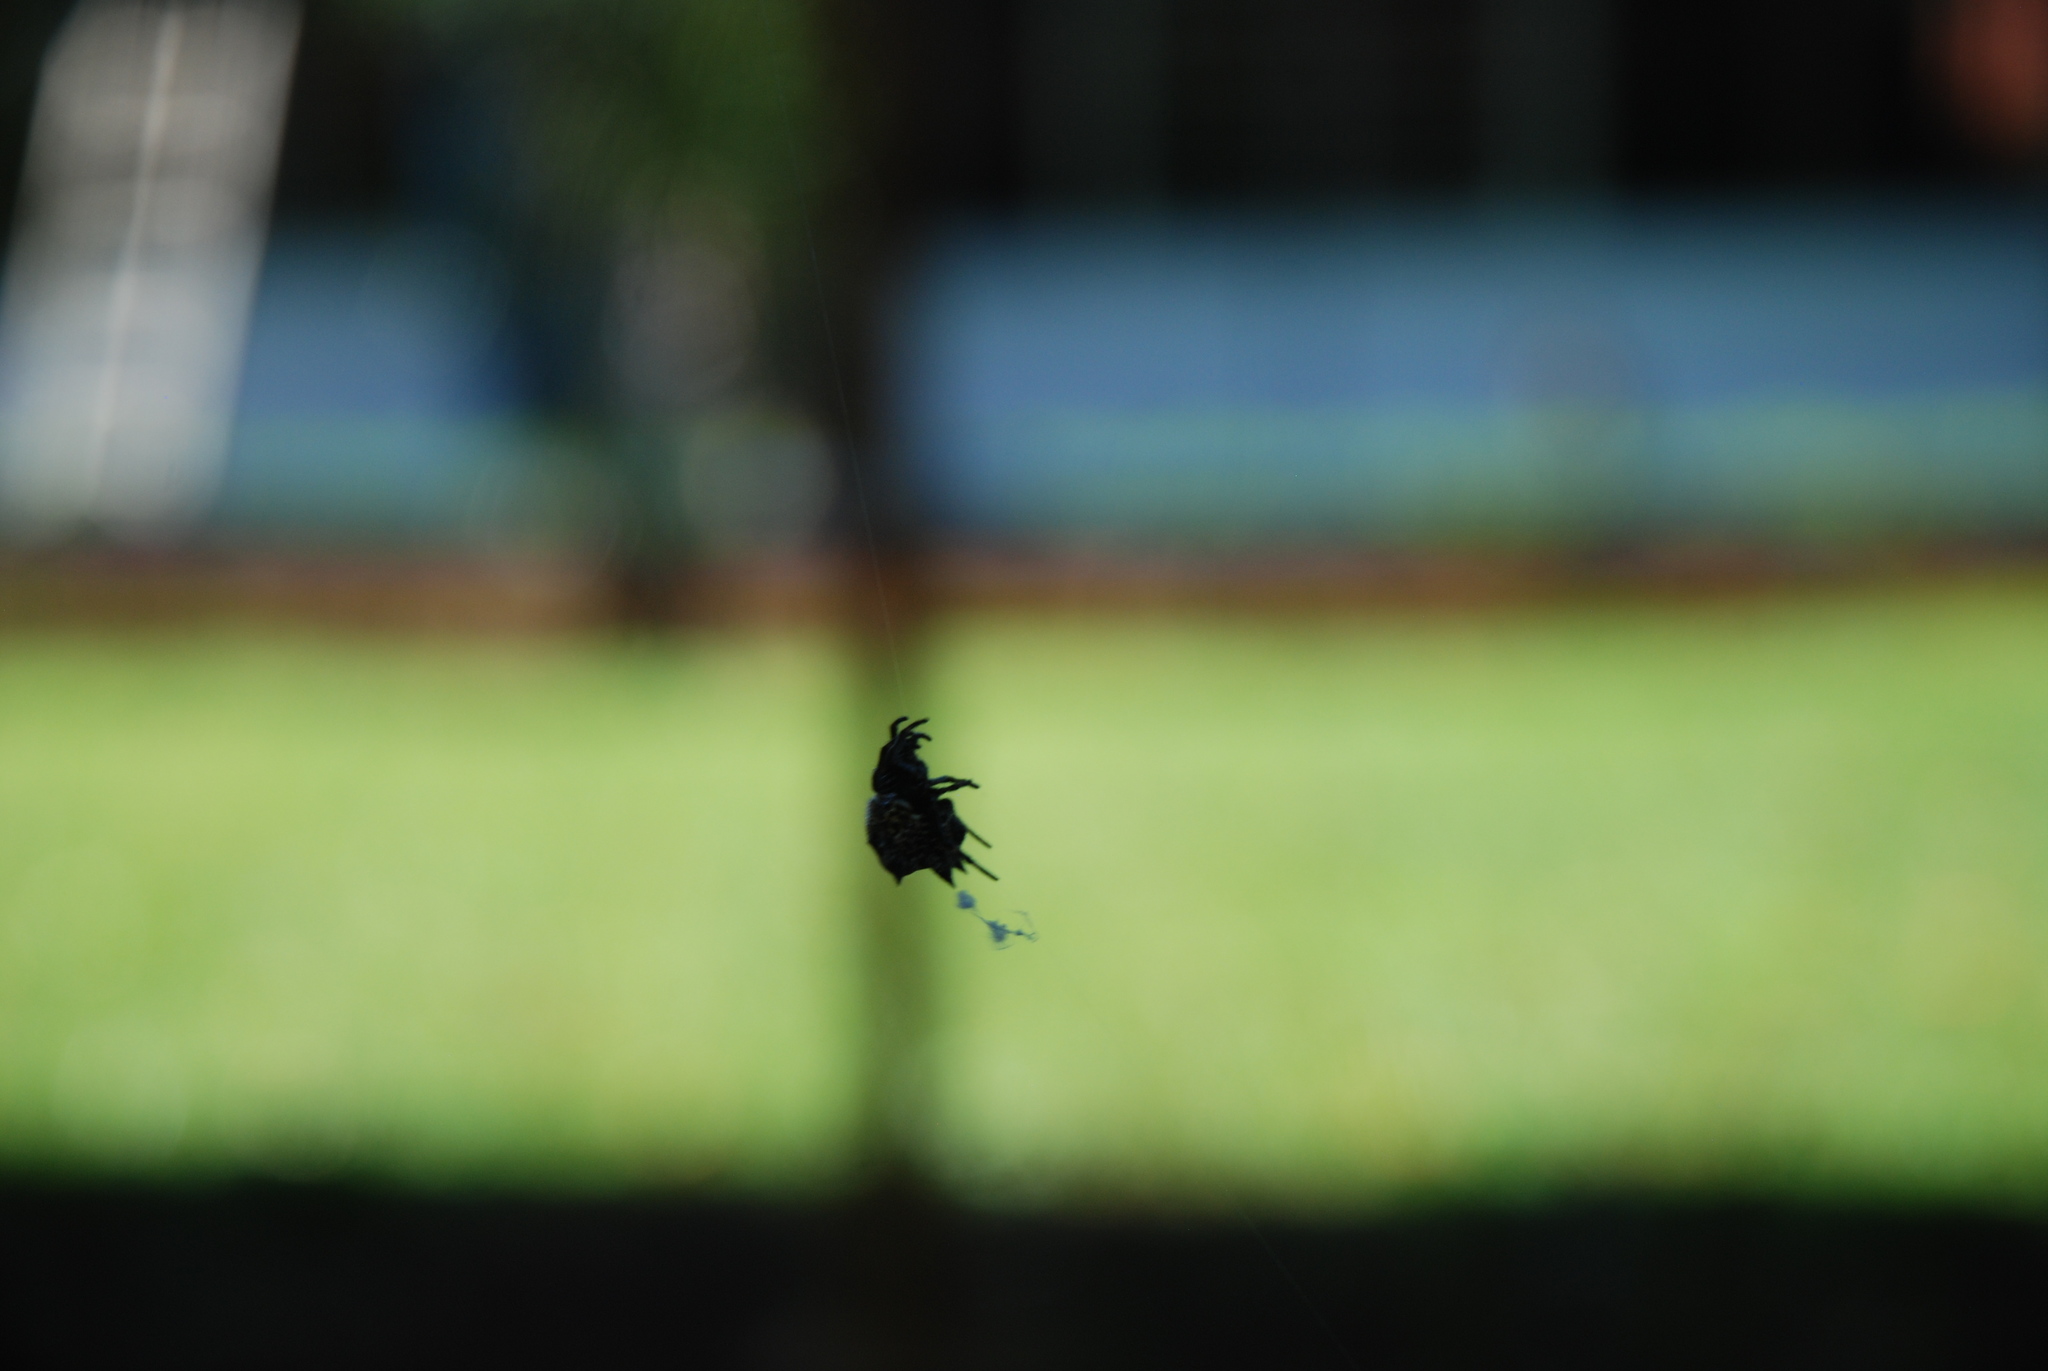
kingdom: Animalia
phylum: Arthropoda
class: Arachnida
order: Araneae
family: Araneidae
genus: Gasteracantha
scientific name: Gasteracantha cancriformis
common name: Orb weavers
